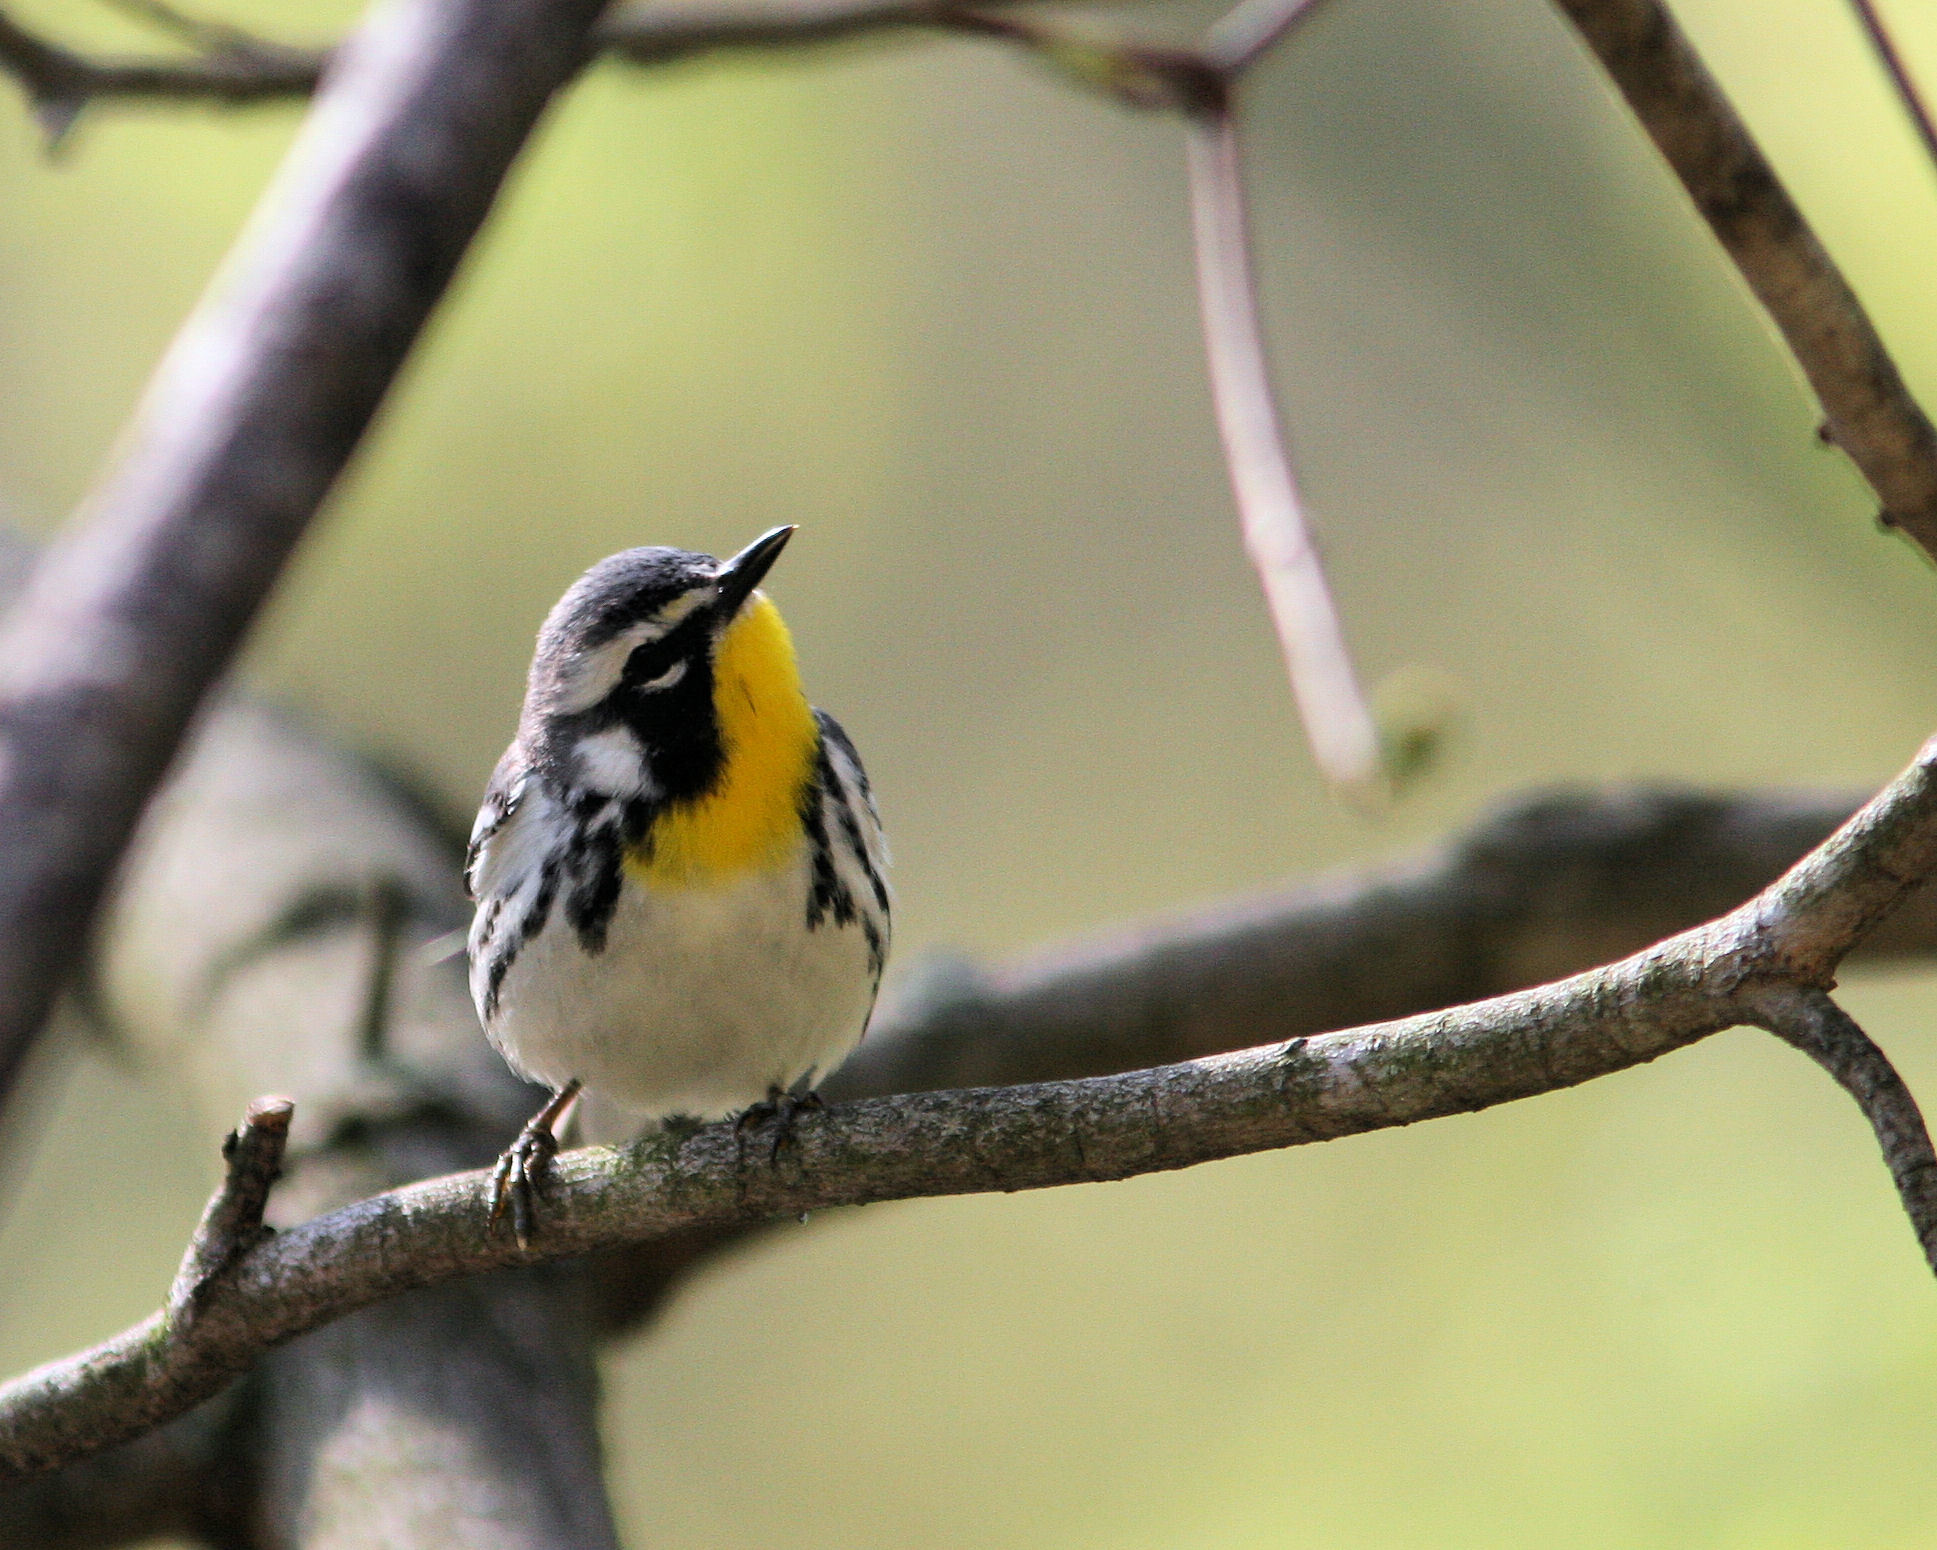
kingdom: Animalia
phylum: Chordata
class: Aves
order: Passeriformes
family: Parulidae
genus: Setophaga
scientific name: Setophaga dominica
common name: Yellow-throated warbler
